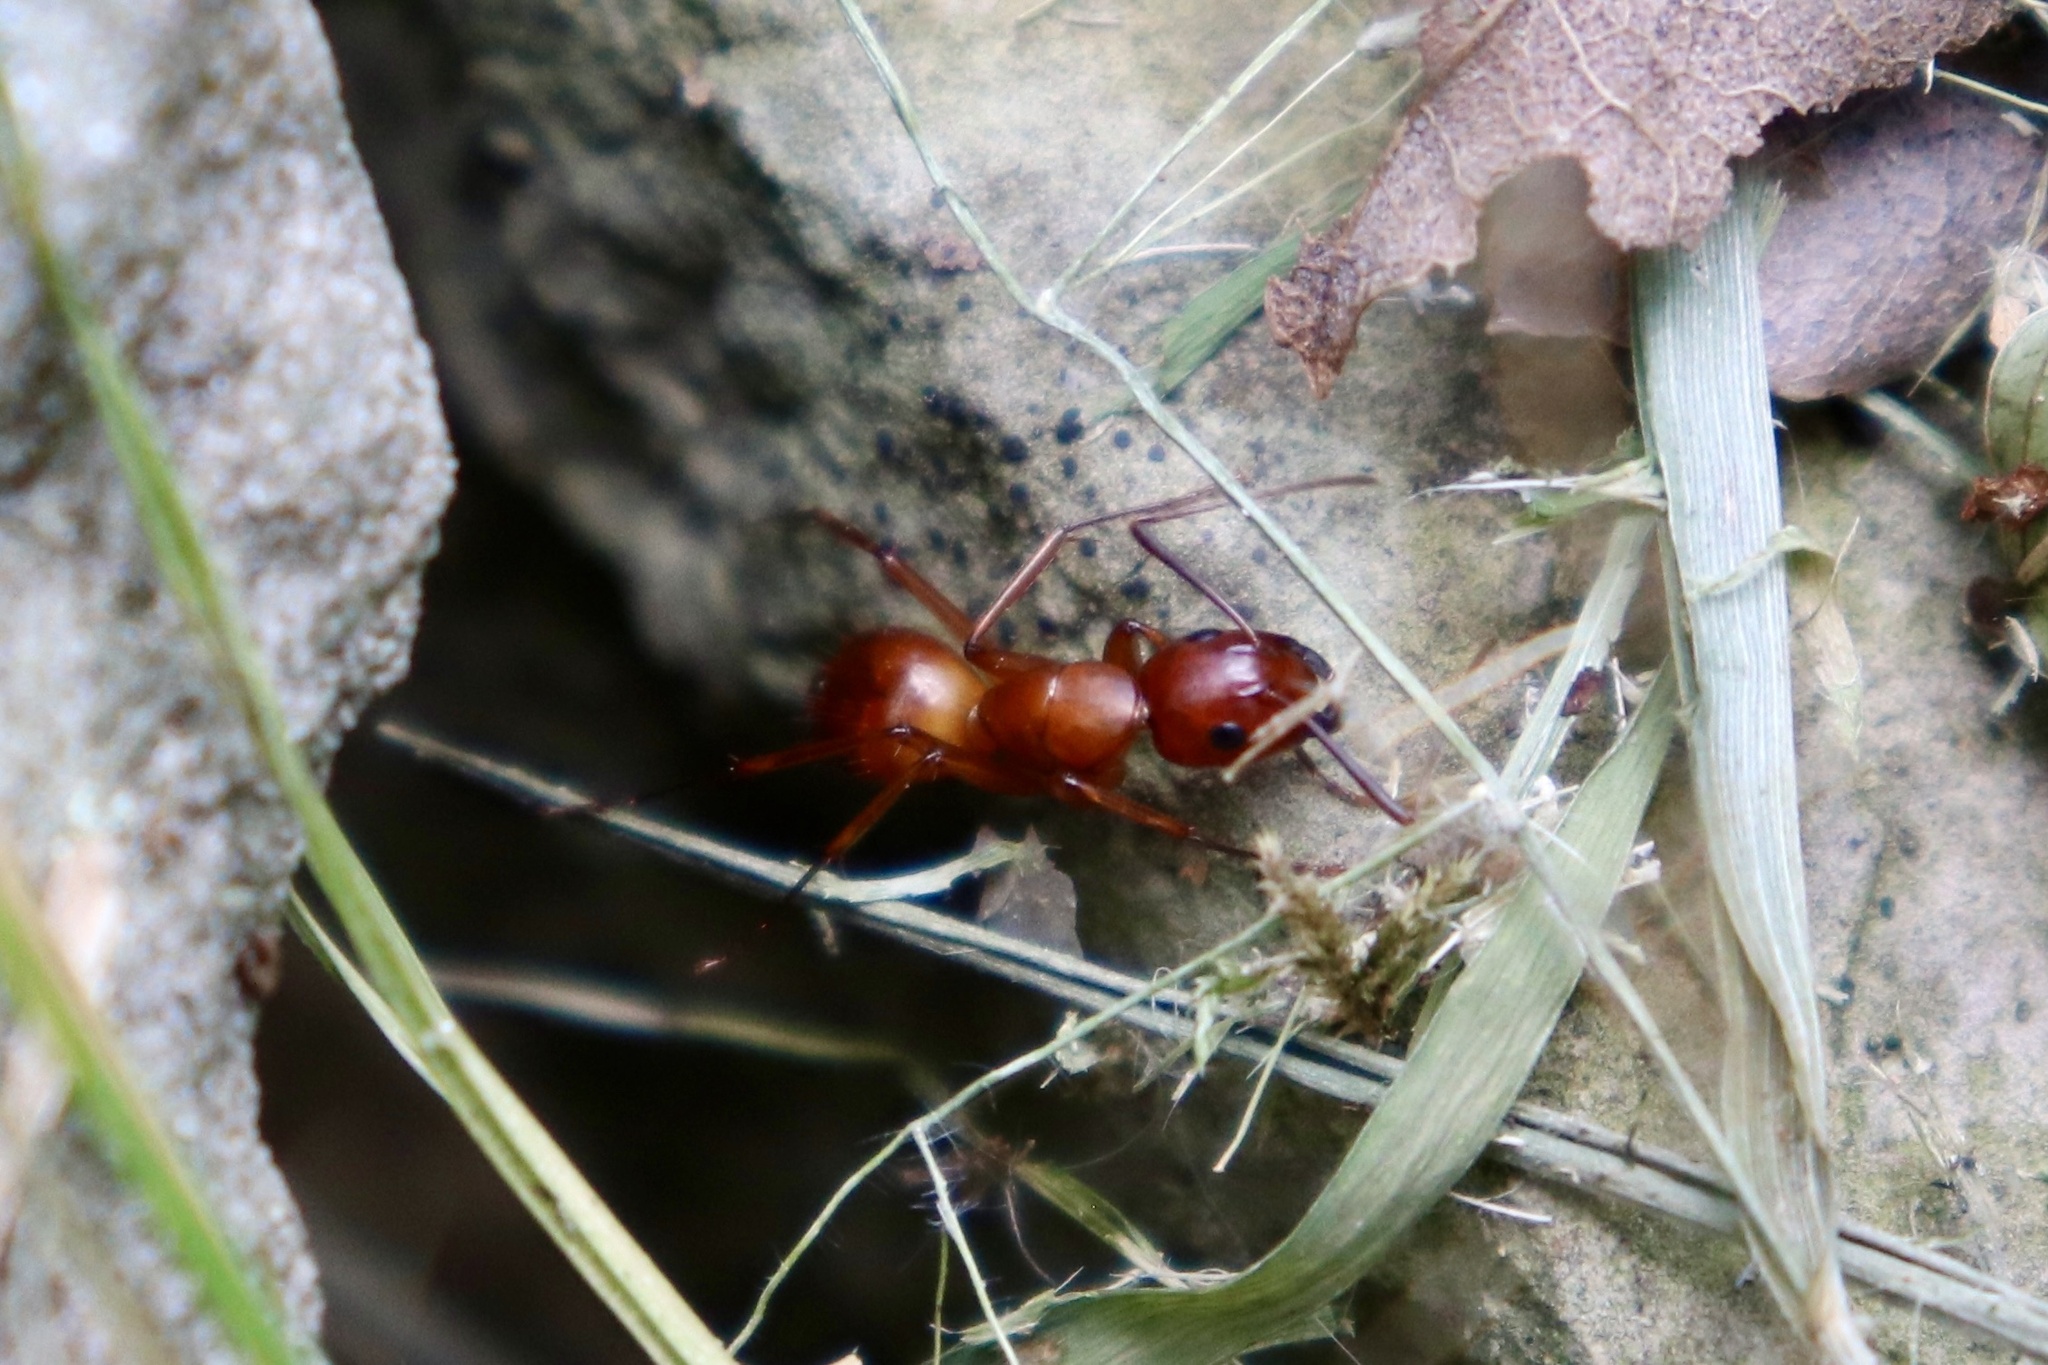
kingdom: Animalia
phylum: Arthropoda
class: Insecta
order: Hymenoptera
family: Formicidae
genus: Camponotus
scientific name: Camponotus castaneus
